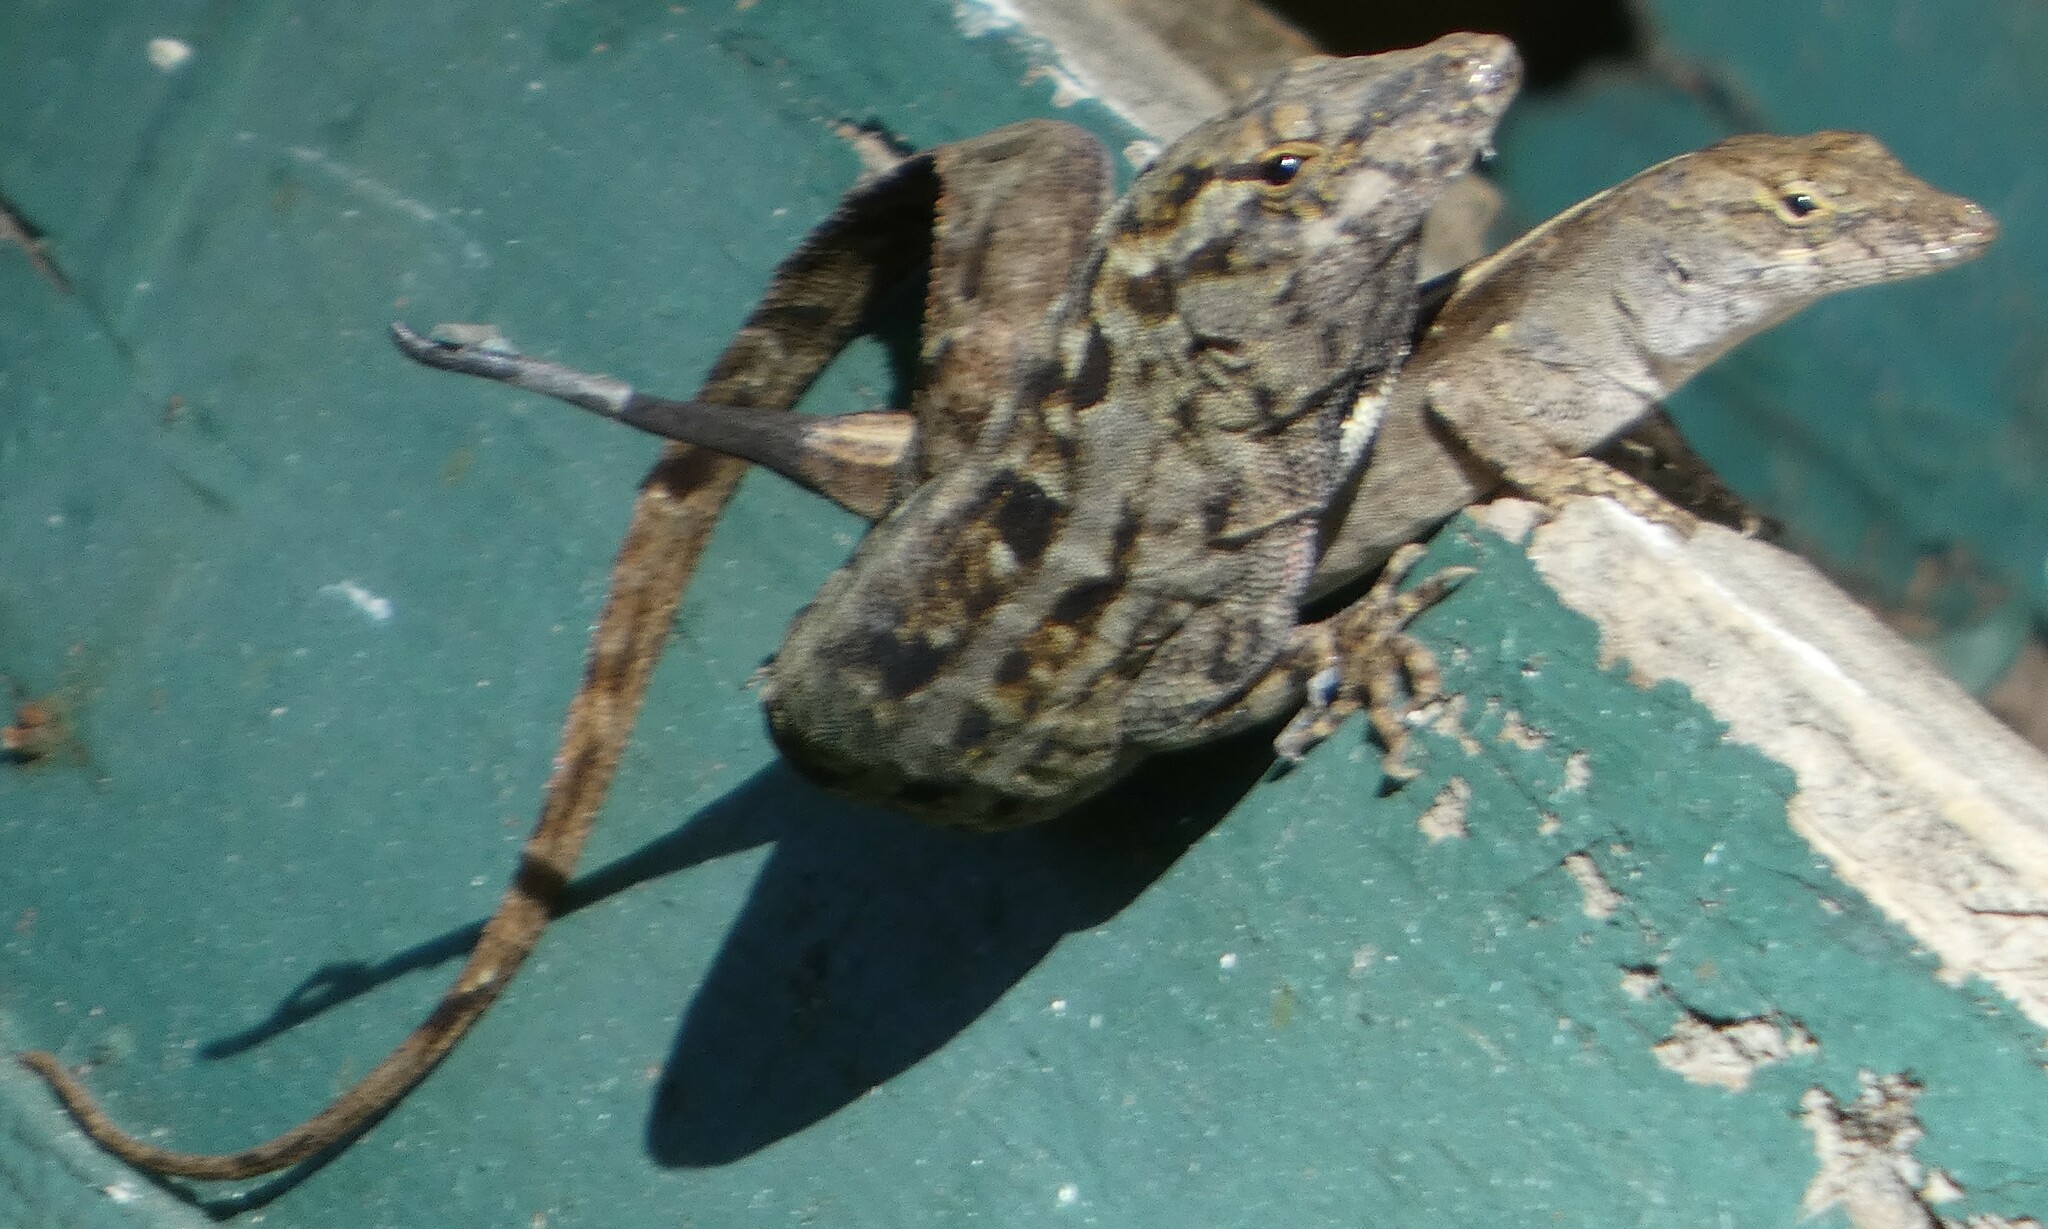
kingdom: Animalia
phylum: Chordata
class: Squamata
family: Dactyloidae
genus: Anolis
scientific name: Anolis sagrei
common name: Brown anole
